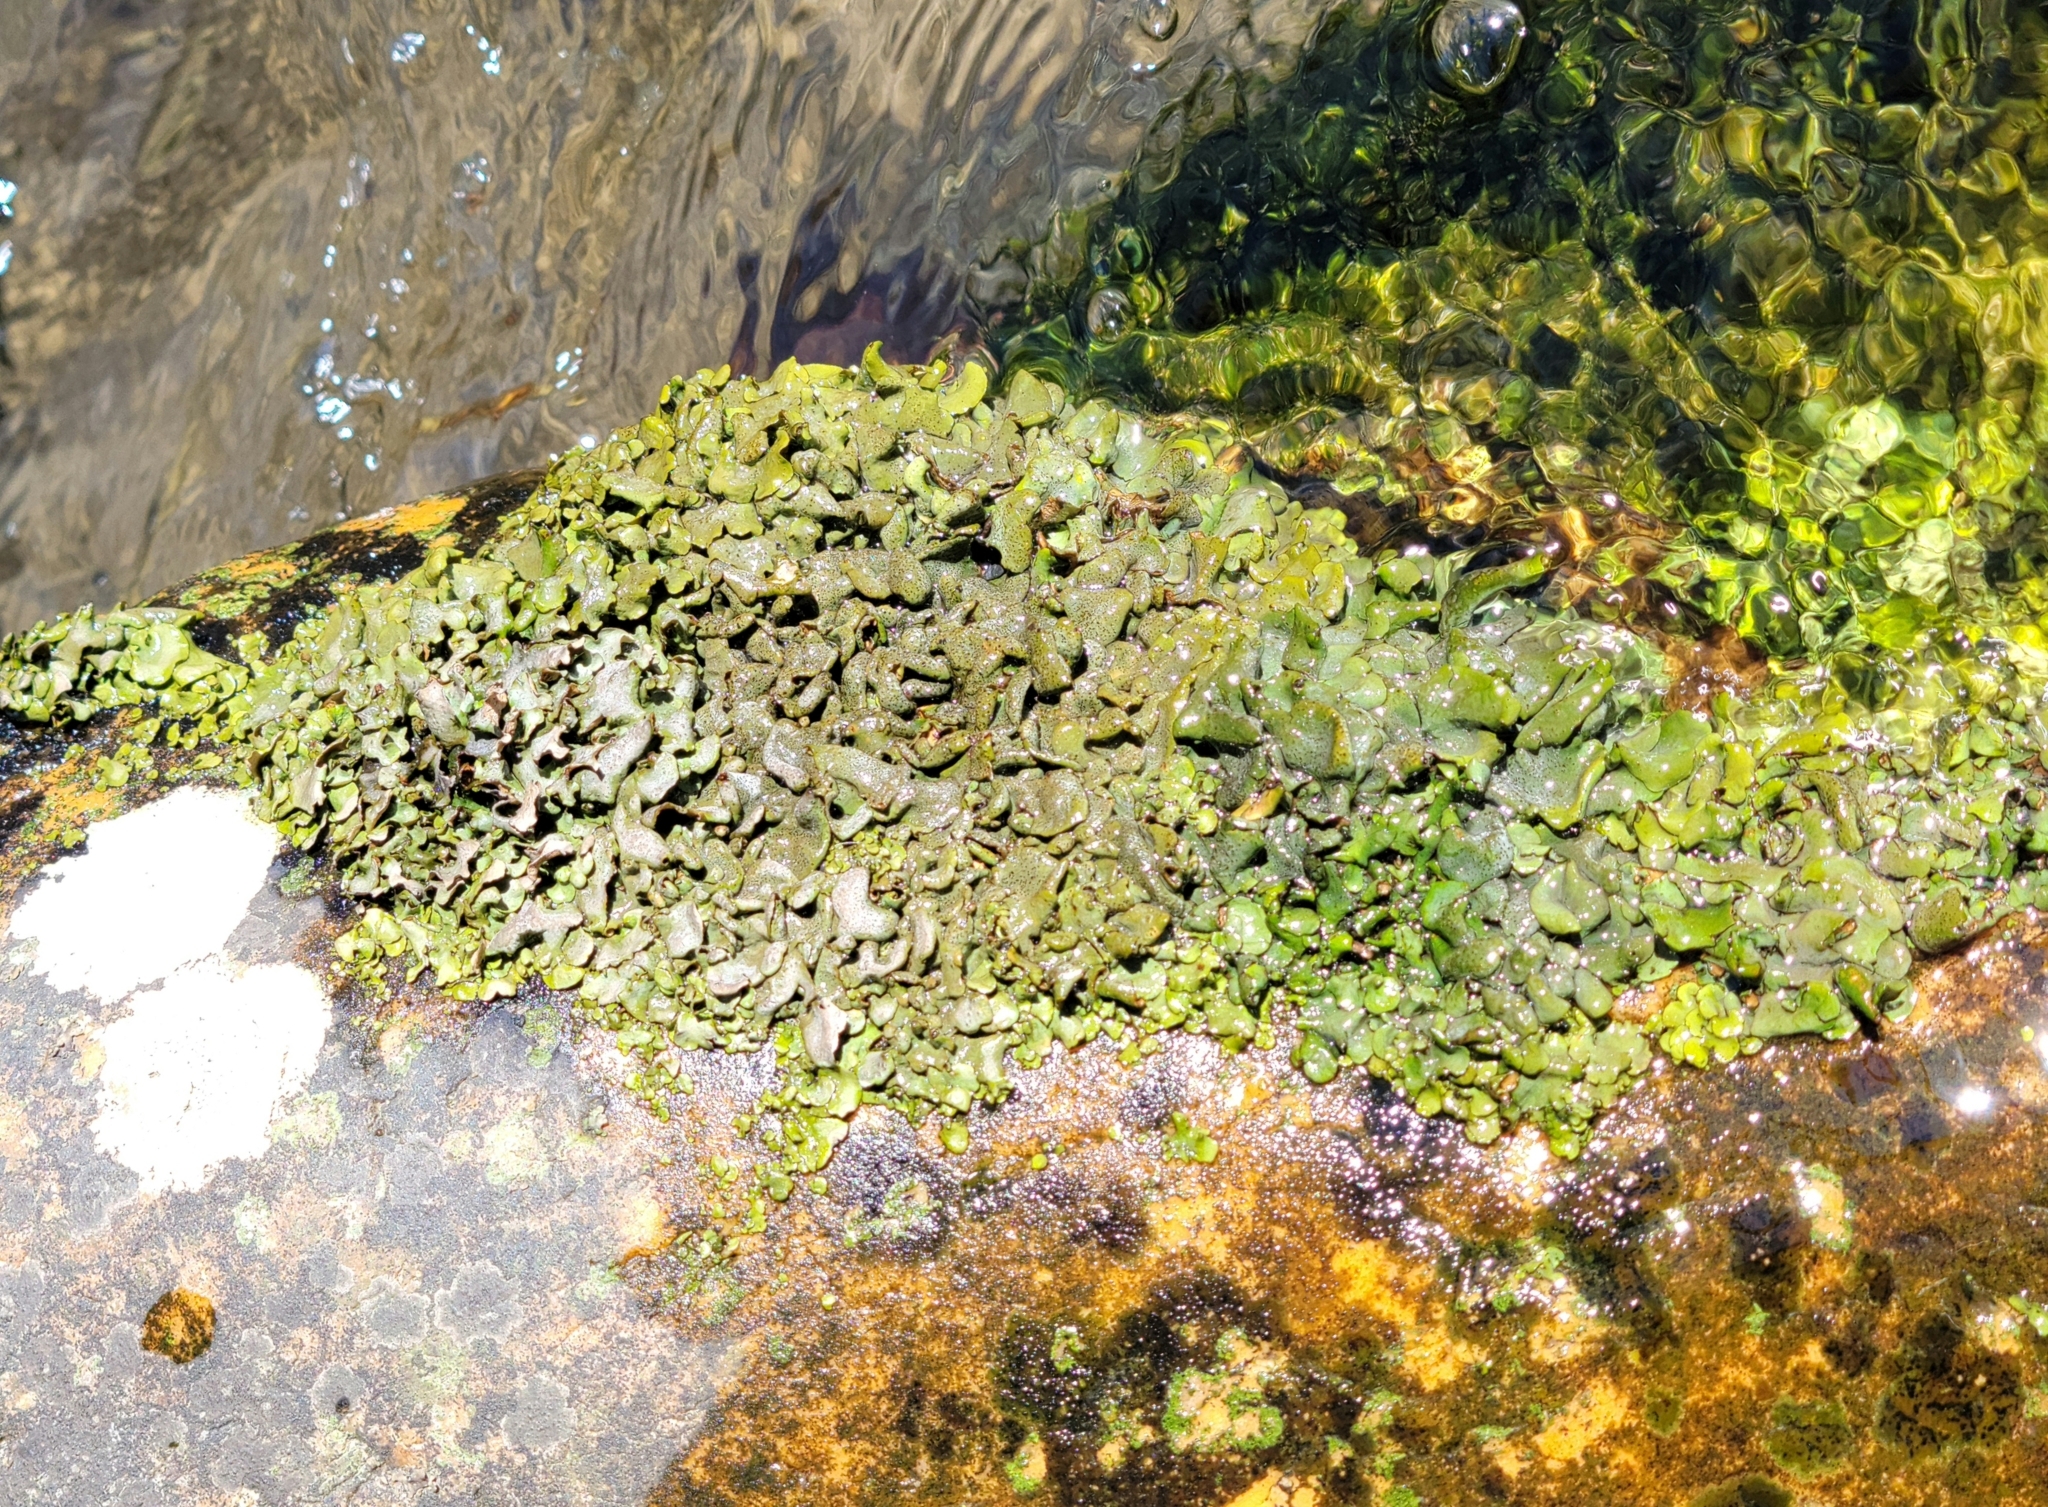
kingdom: Fungi
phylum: Ascomycota
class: Eurotiomycetes
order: Verrucariales
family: Verrucariaceae
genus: Dermatocarpon
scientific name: Dermatocarpon luridum
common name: Brook stippleback lichen
